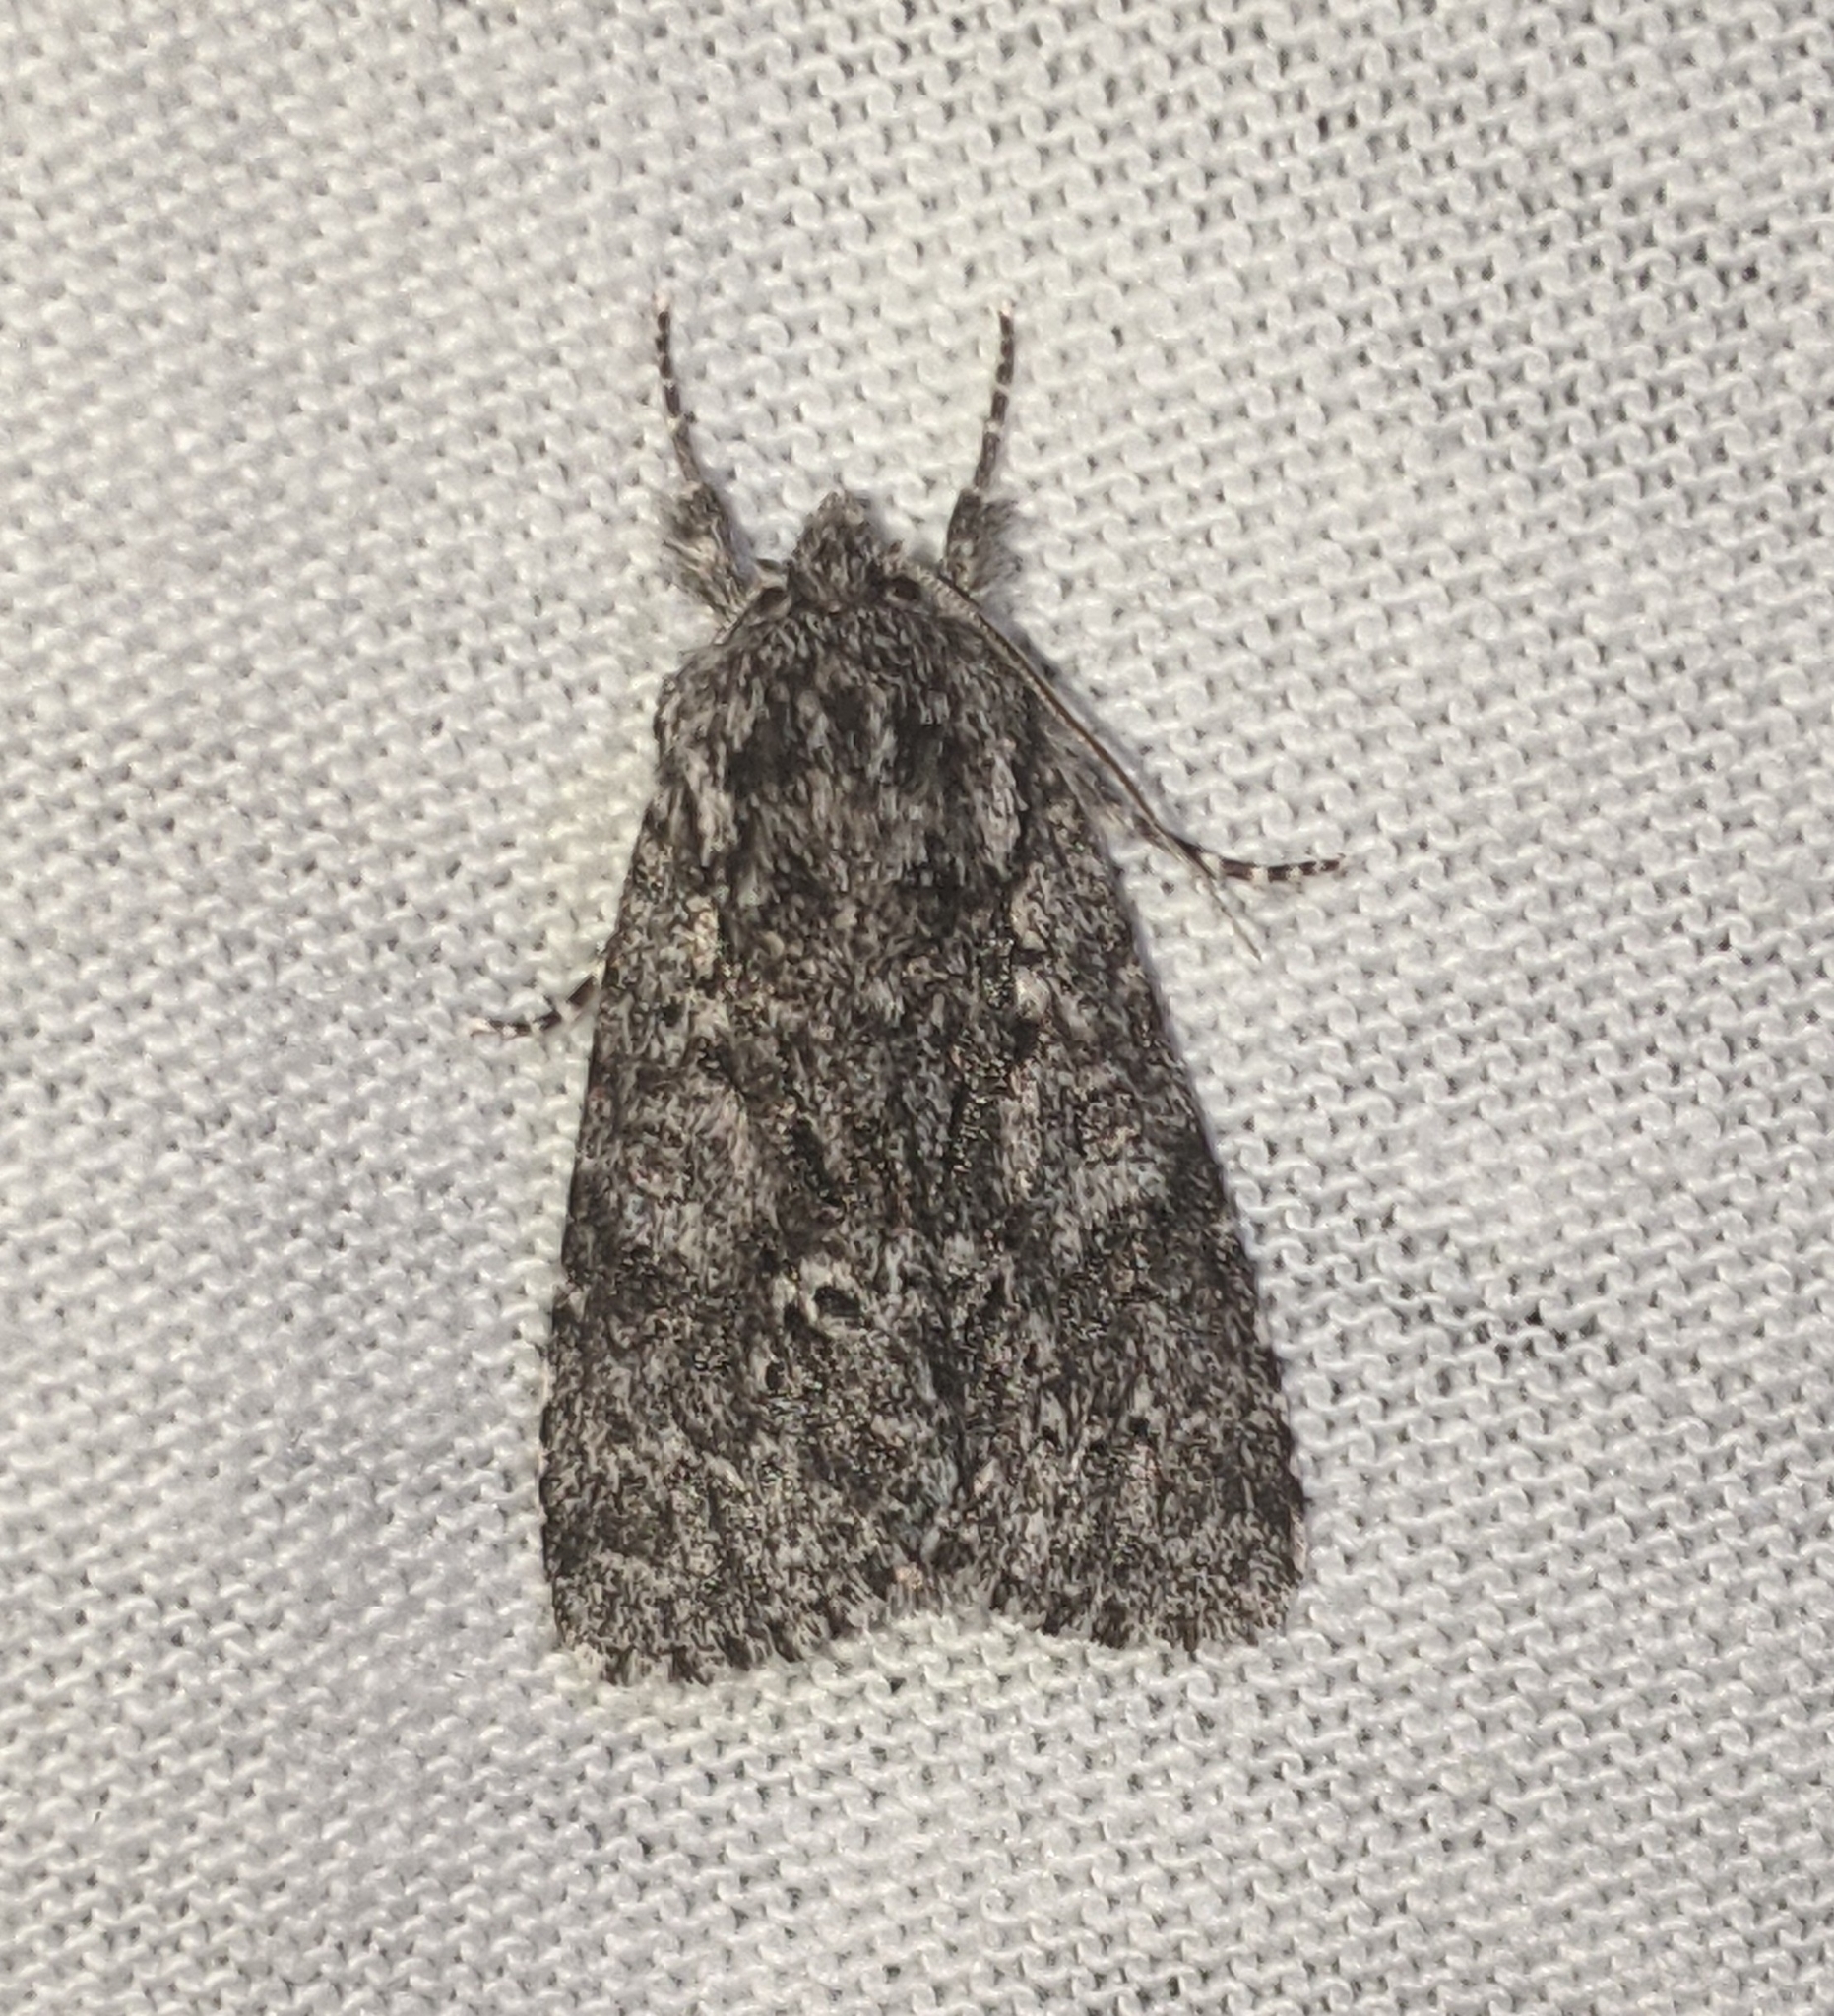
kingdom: Animalia
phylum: Arthropoda
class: Insecta
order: Lepidoptera
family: Noctuidae
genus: Acronicta
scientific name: Acronicta impressa
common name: Impressed dagger
